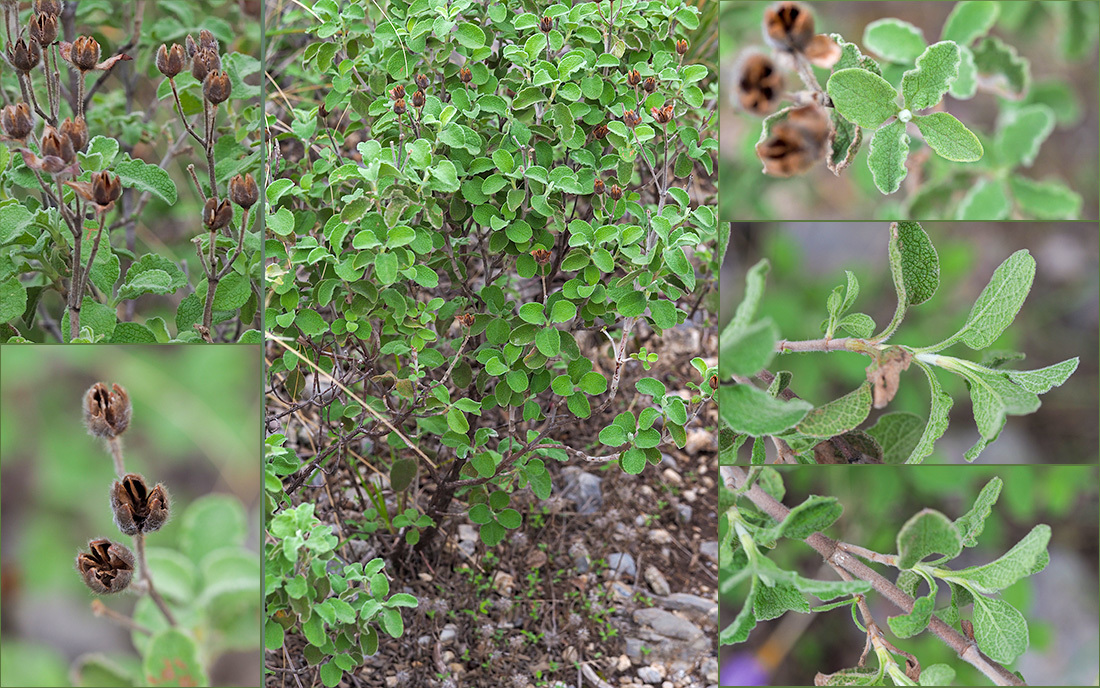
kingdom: Plantae
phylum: Tracheophyta
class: Magnoliopsida
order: Malvales
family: Cistaceae
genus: Cistus
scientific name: Cistus creticus
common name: Cretan rockrose
